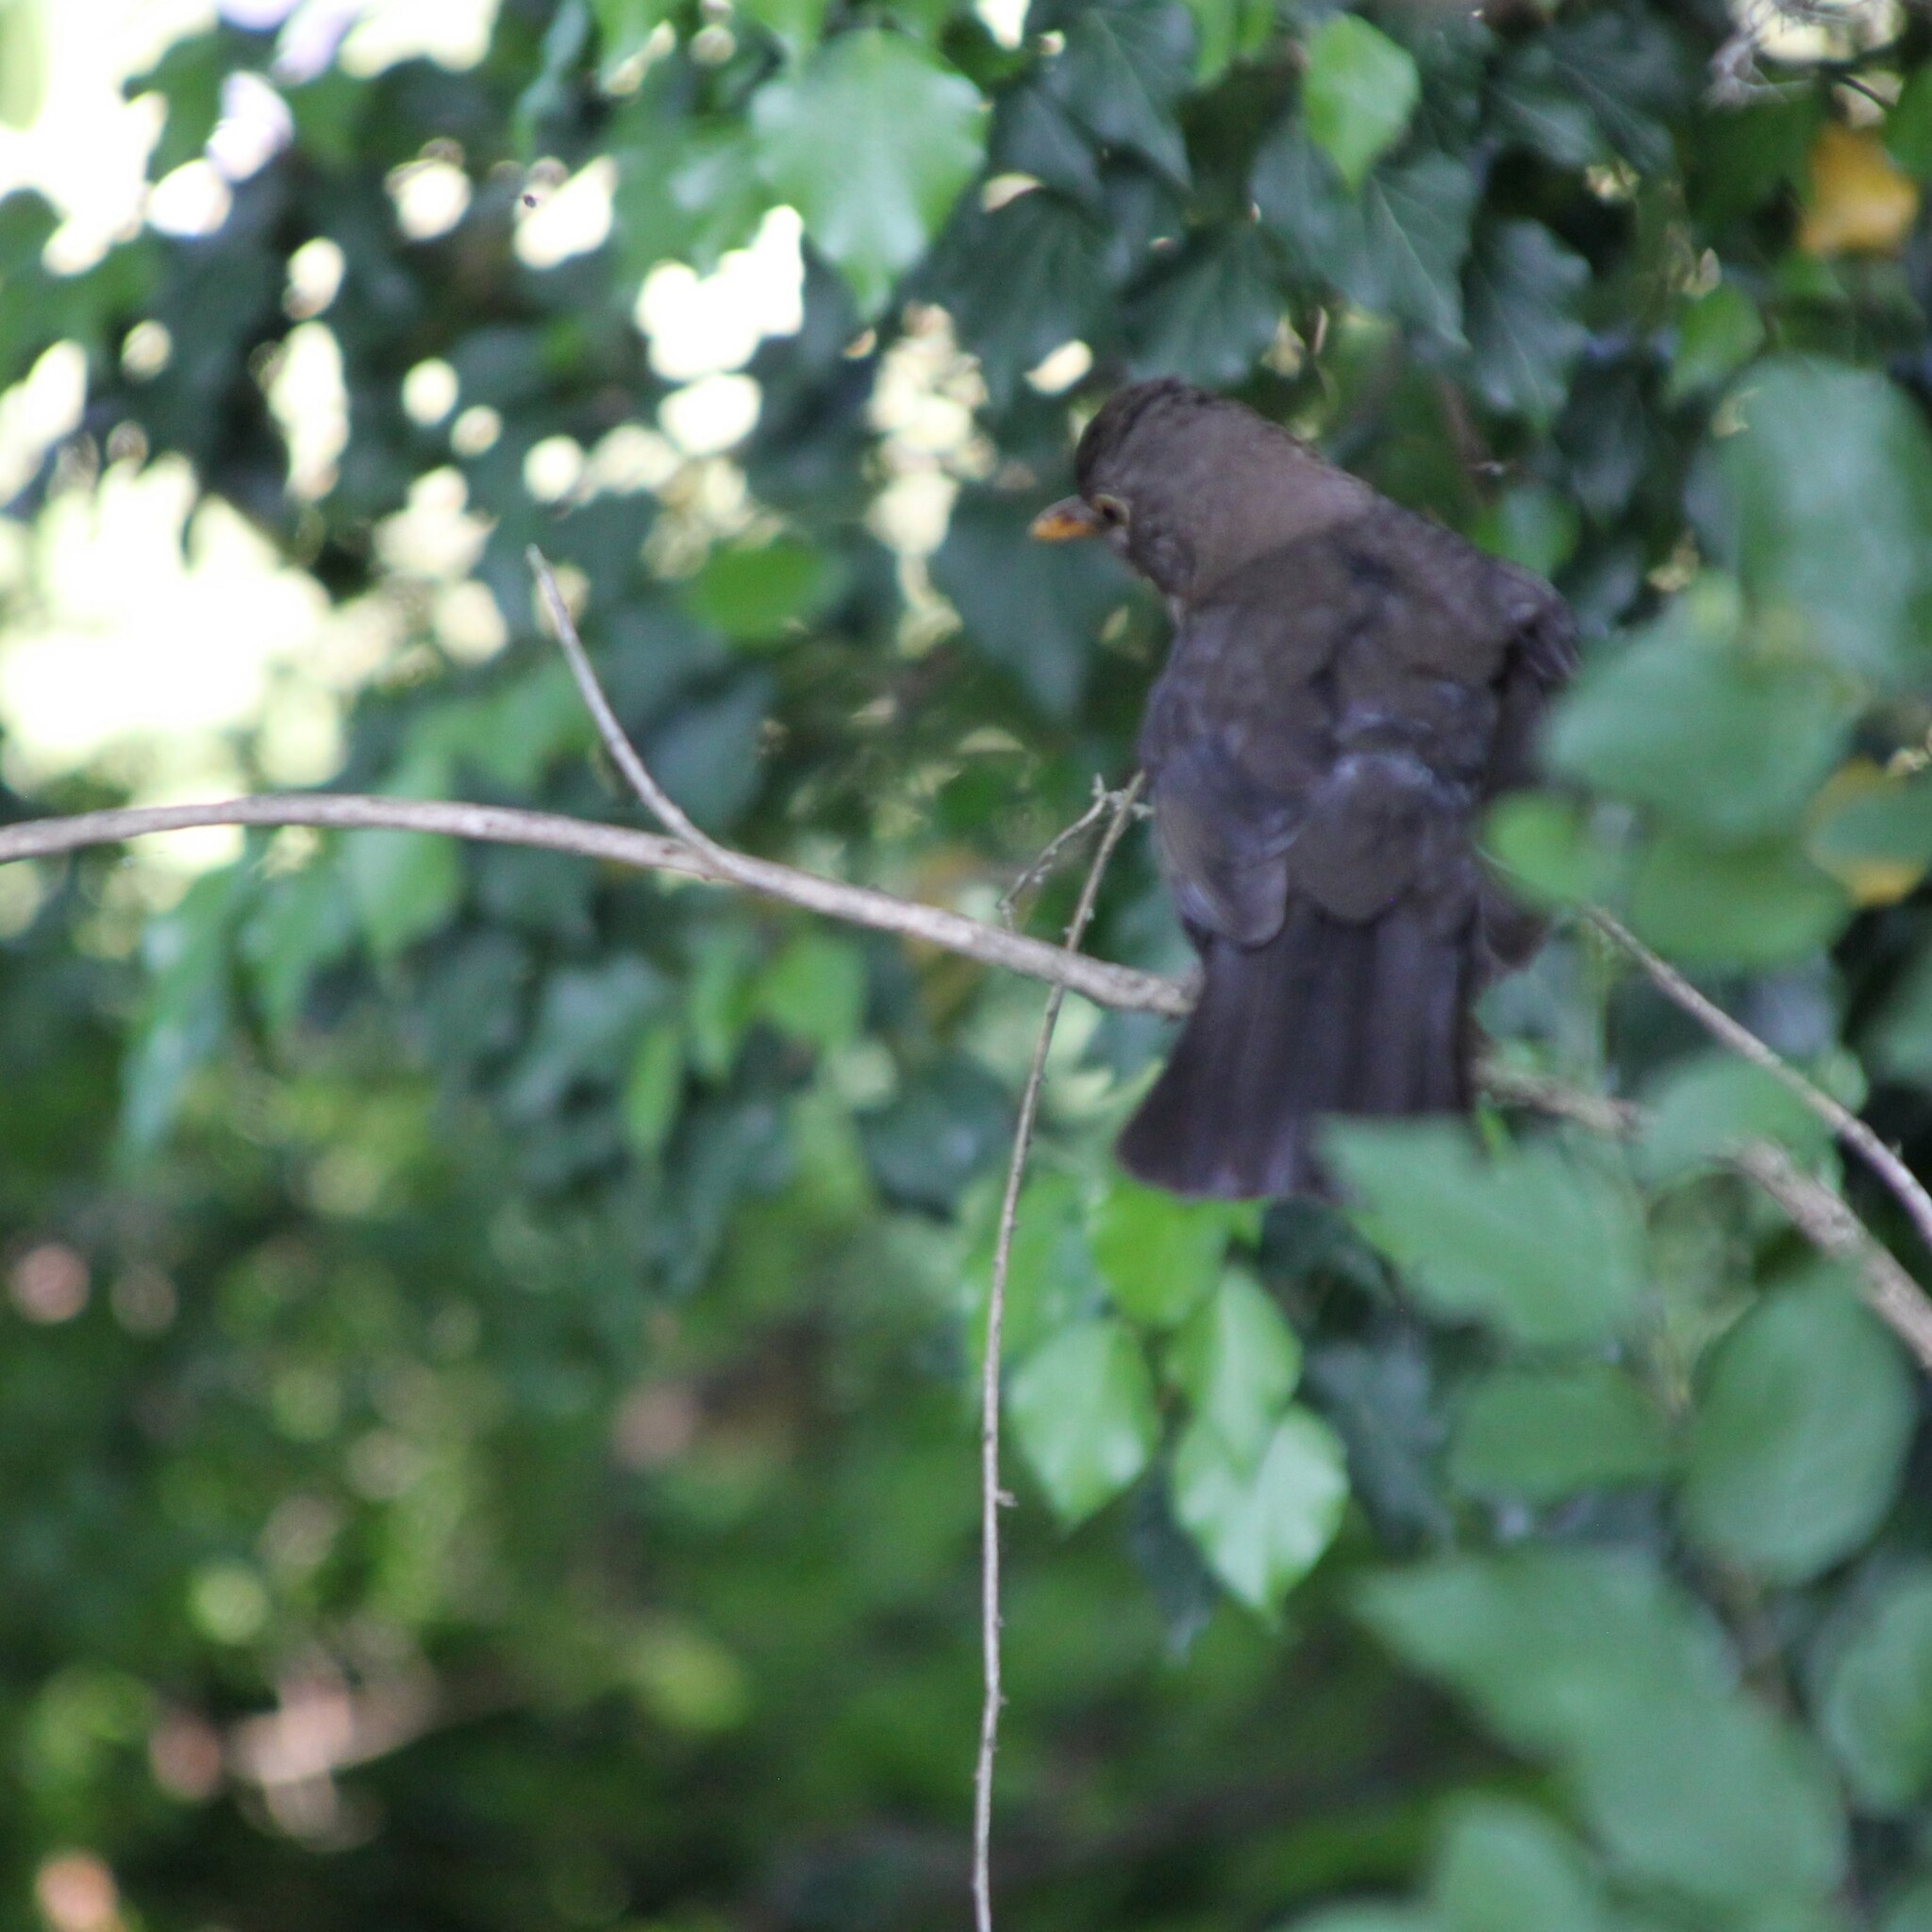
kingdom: Animalia
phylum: Chordata
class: Aves
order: Passeriformes
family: Turdidae
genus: Turdus
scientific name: Turdus merula
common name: Common blackbird
